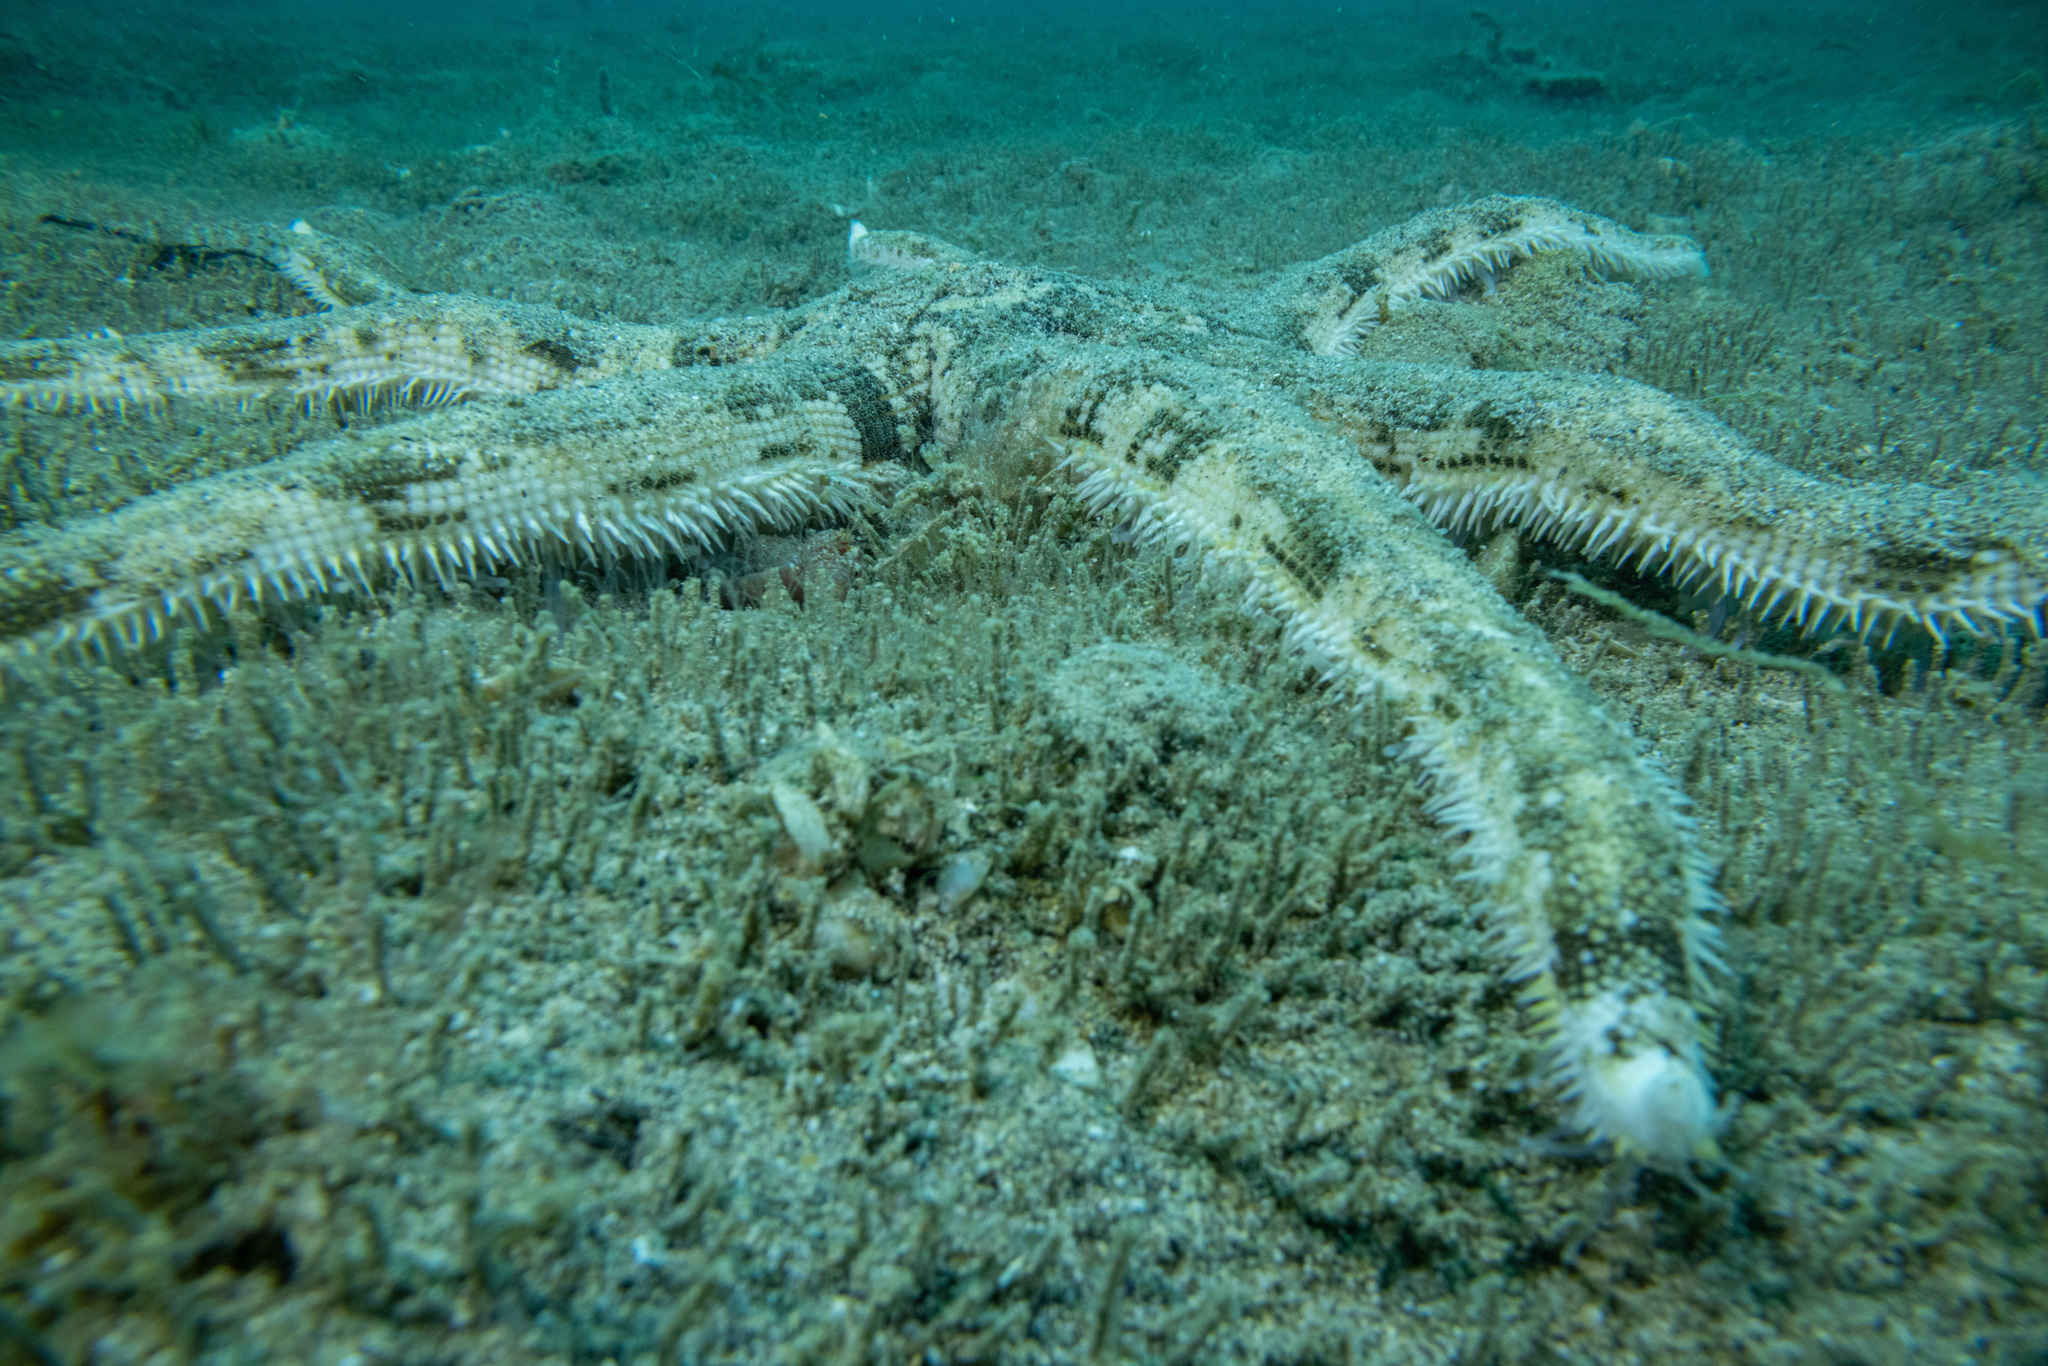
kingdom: Animalia
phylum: Echinodermata
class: Asteroidea
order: Paxillosida
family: Luidiidae
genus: Luidia
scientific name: Luidia australiae
